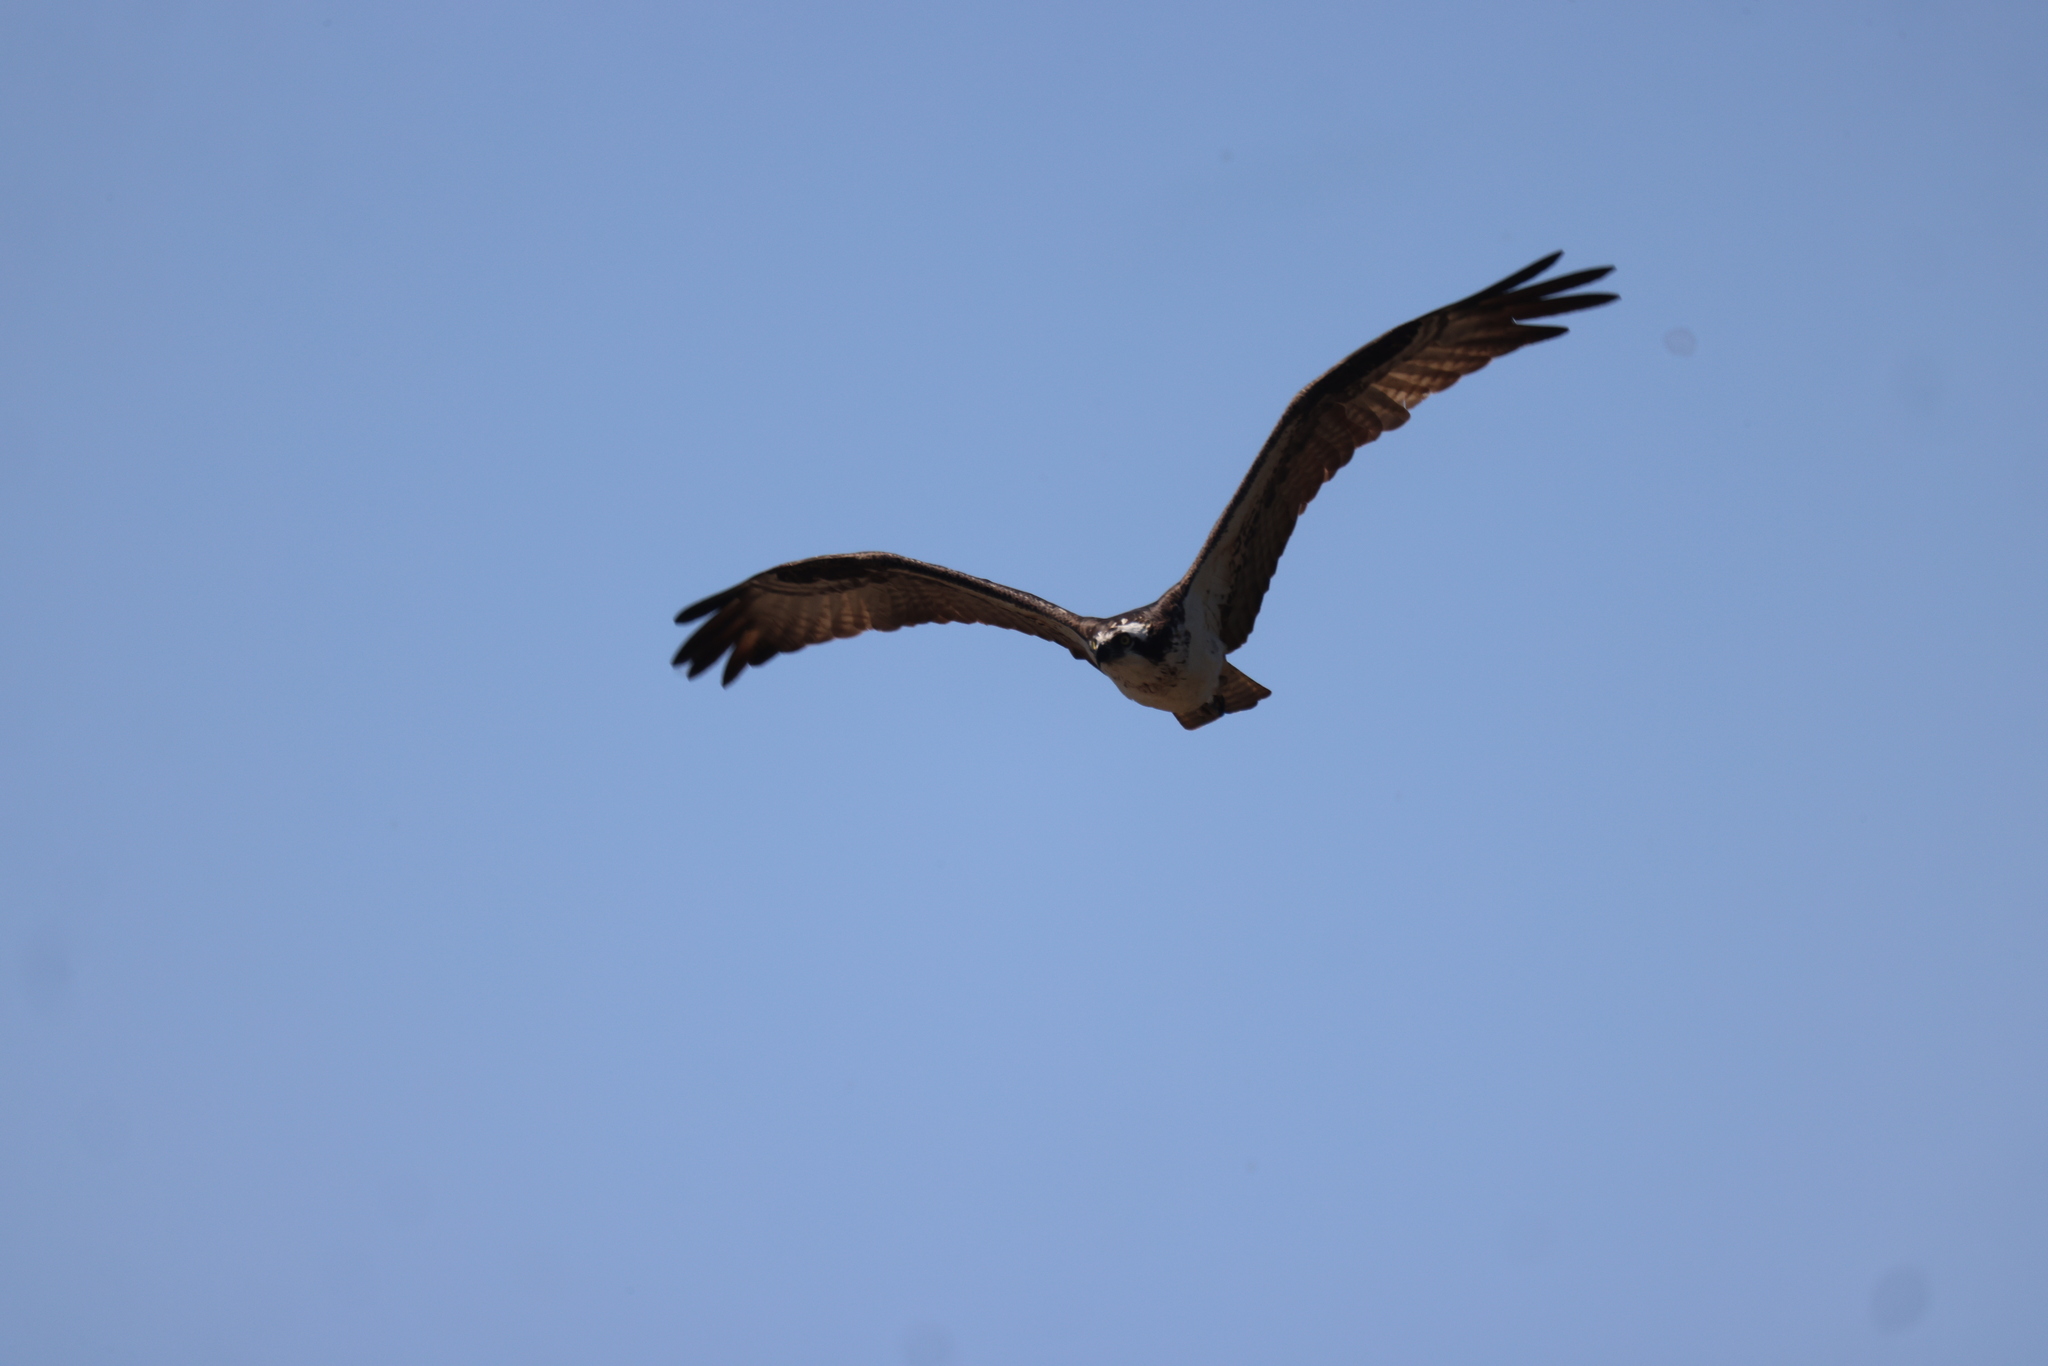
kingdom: Animalia
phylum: Chordata
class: Aves
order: Accipitriformes
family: Pandionidae
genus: Pandion
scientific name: Pandion haliaetus
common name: Osprey
